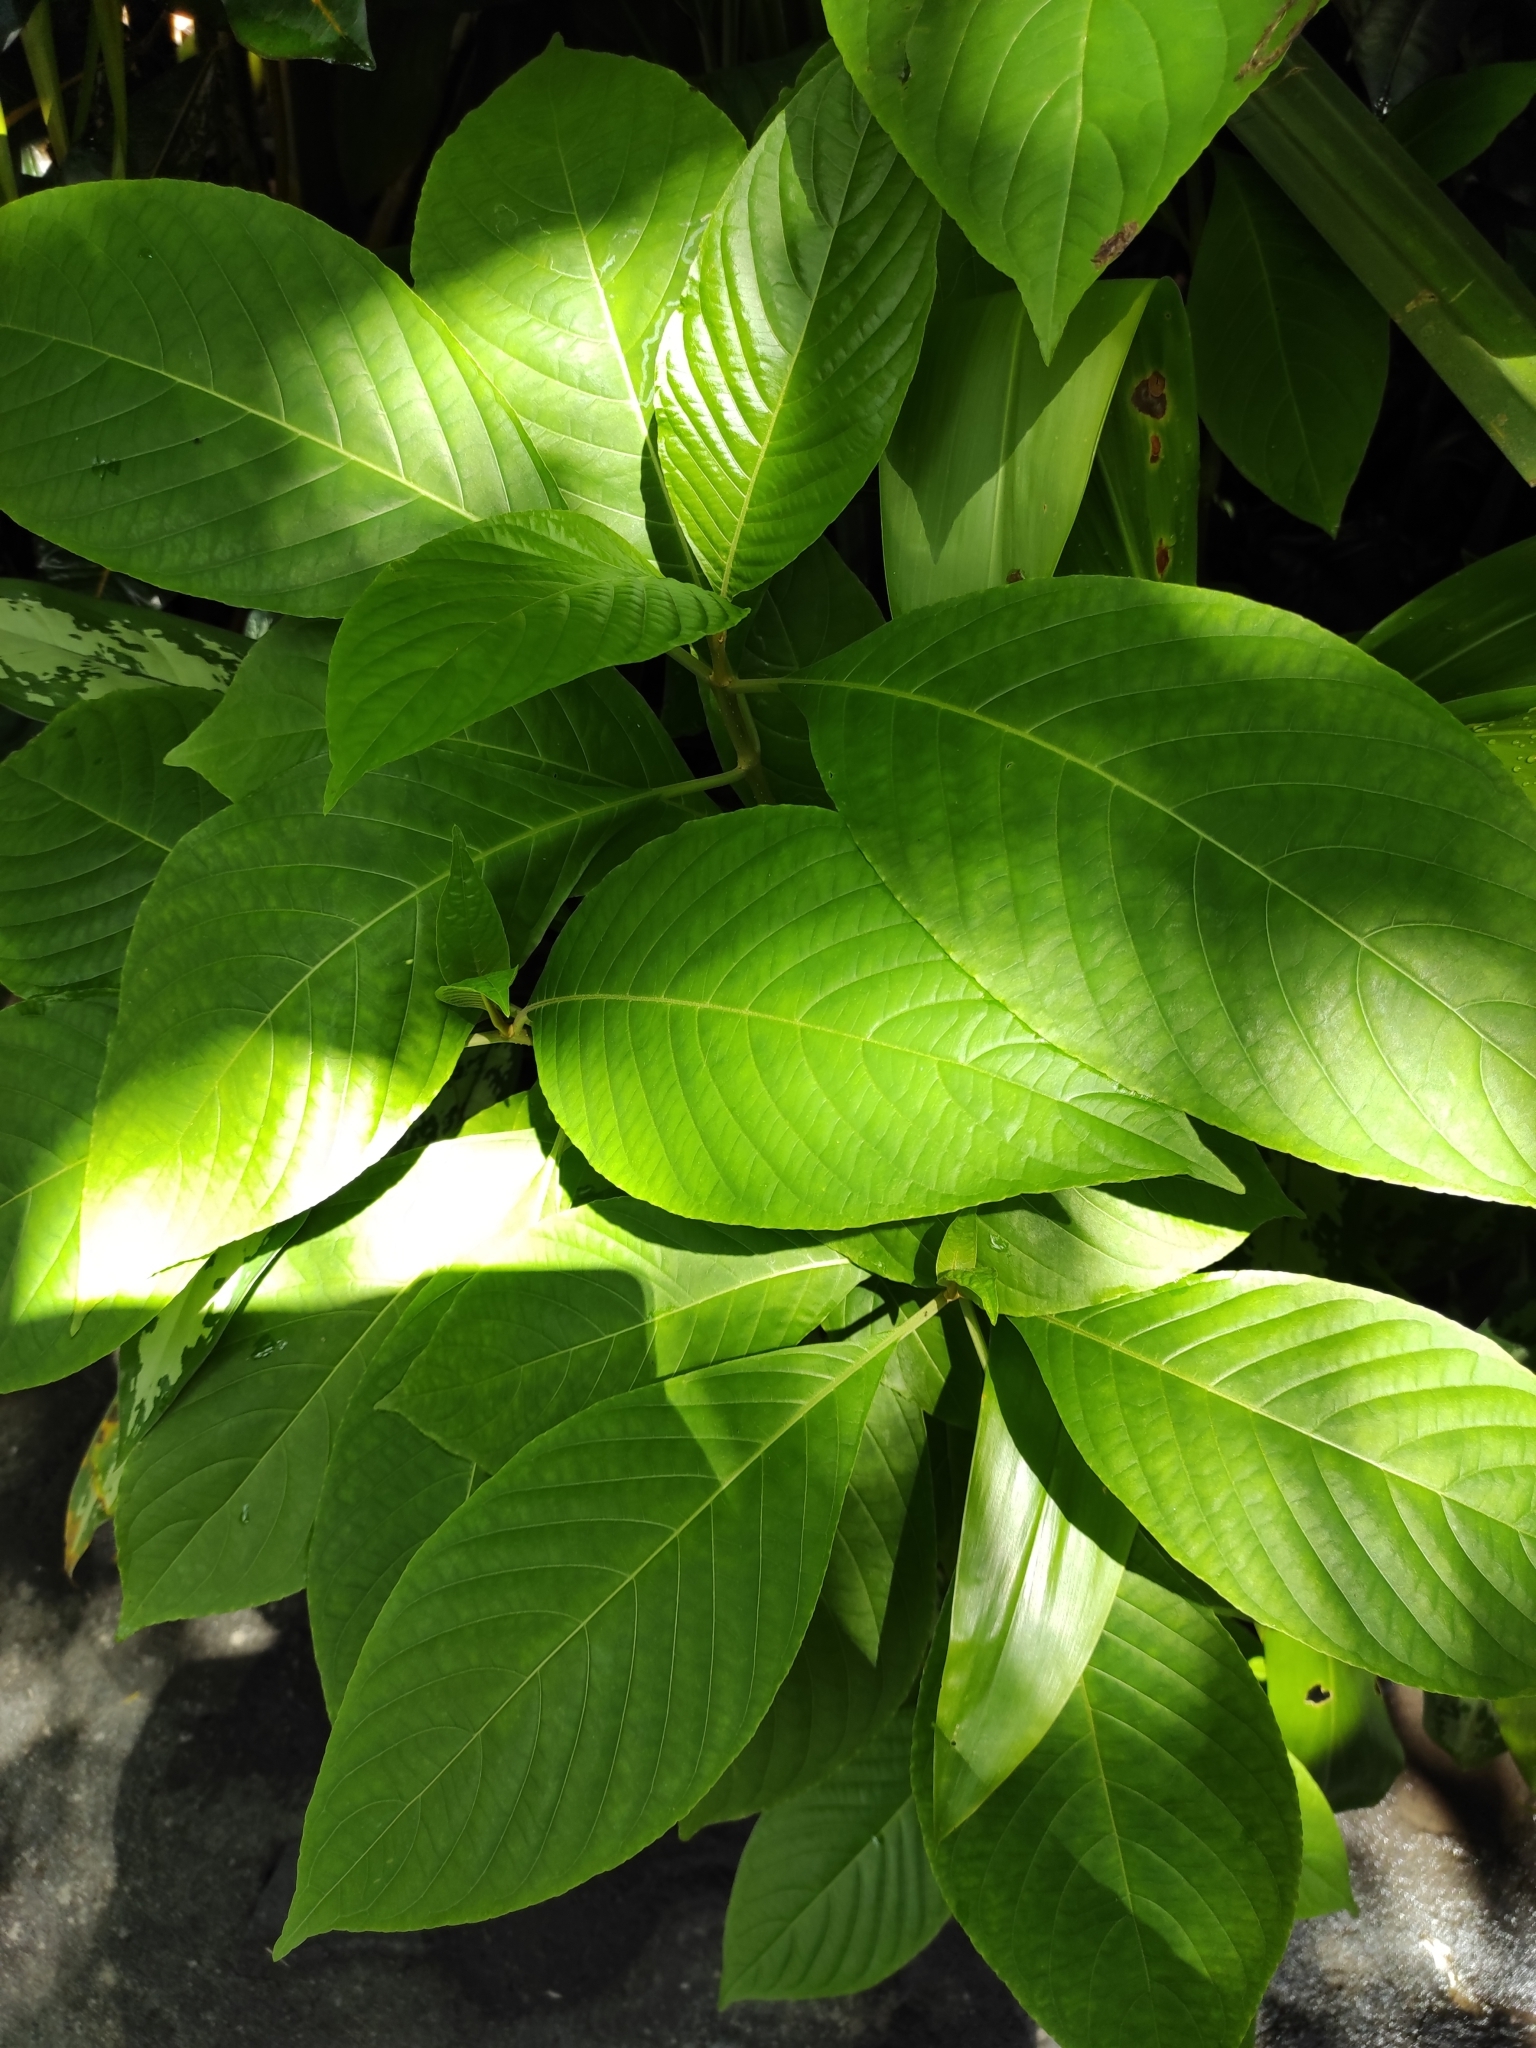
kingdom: Plantae
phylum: Tracheophyta
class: Magnoliopsida
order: Lamiales
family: Acanthaceae
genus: Megaskepasma
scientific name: Megaskepasma erythrochlamys
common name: Brazilian red-cloak
